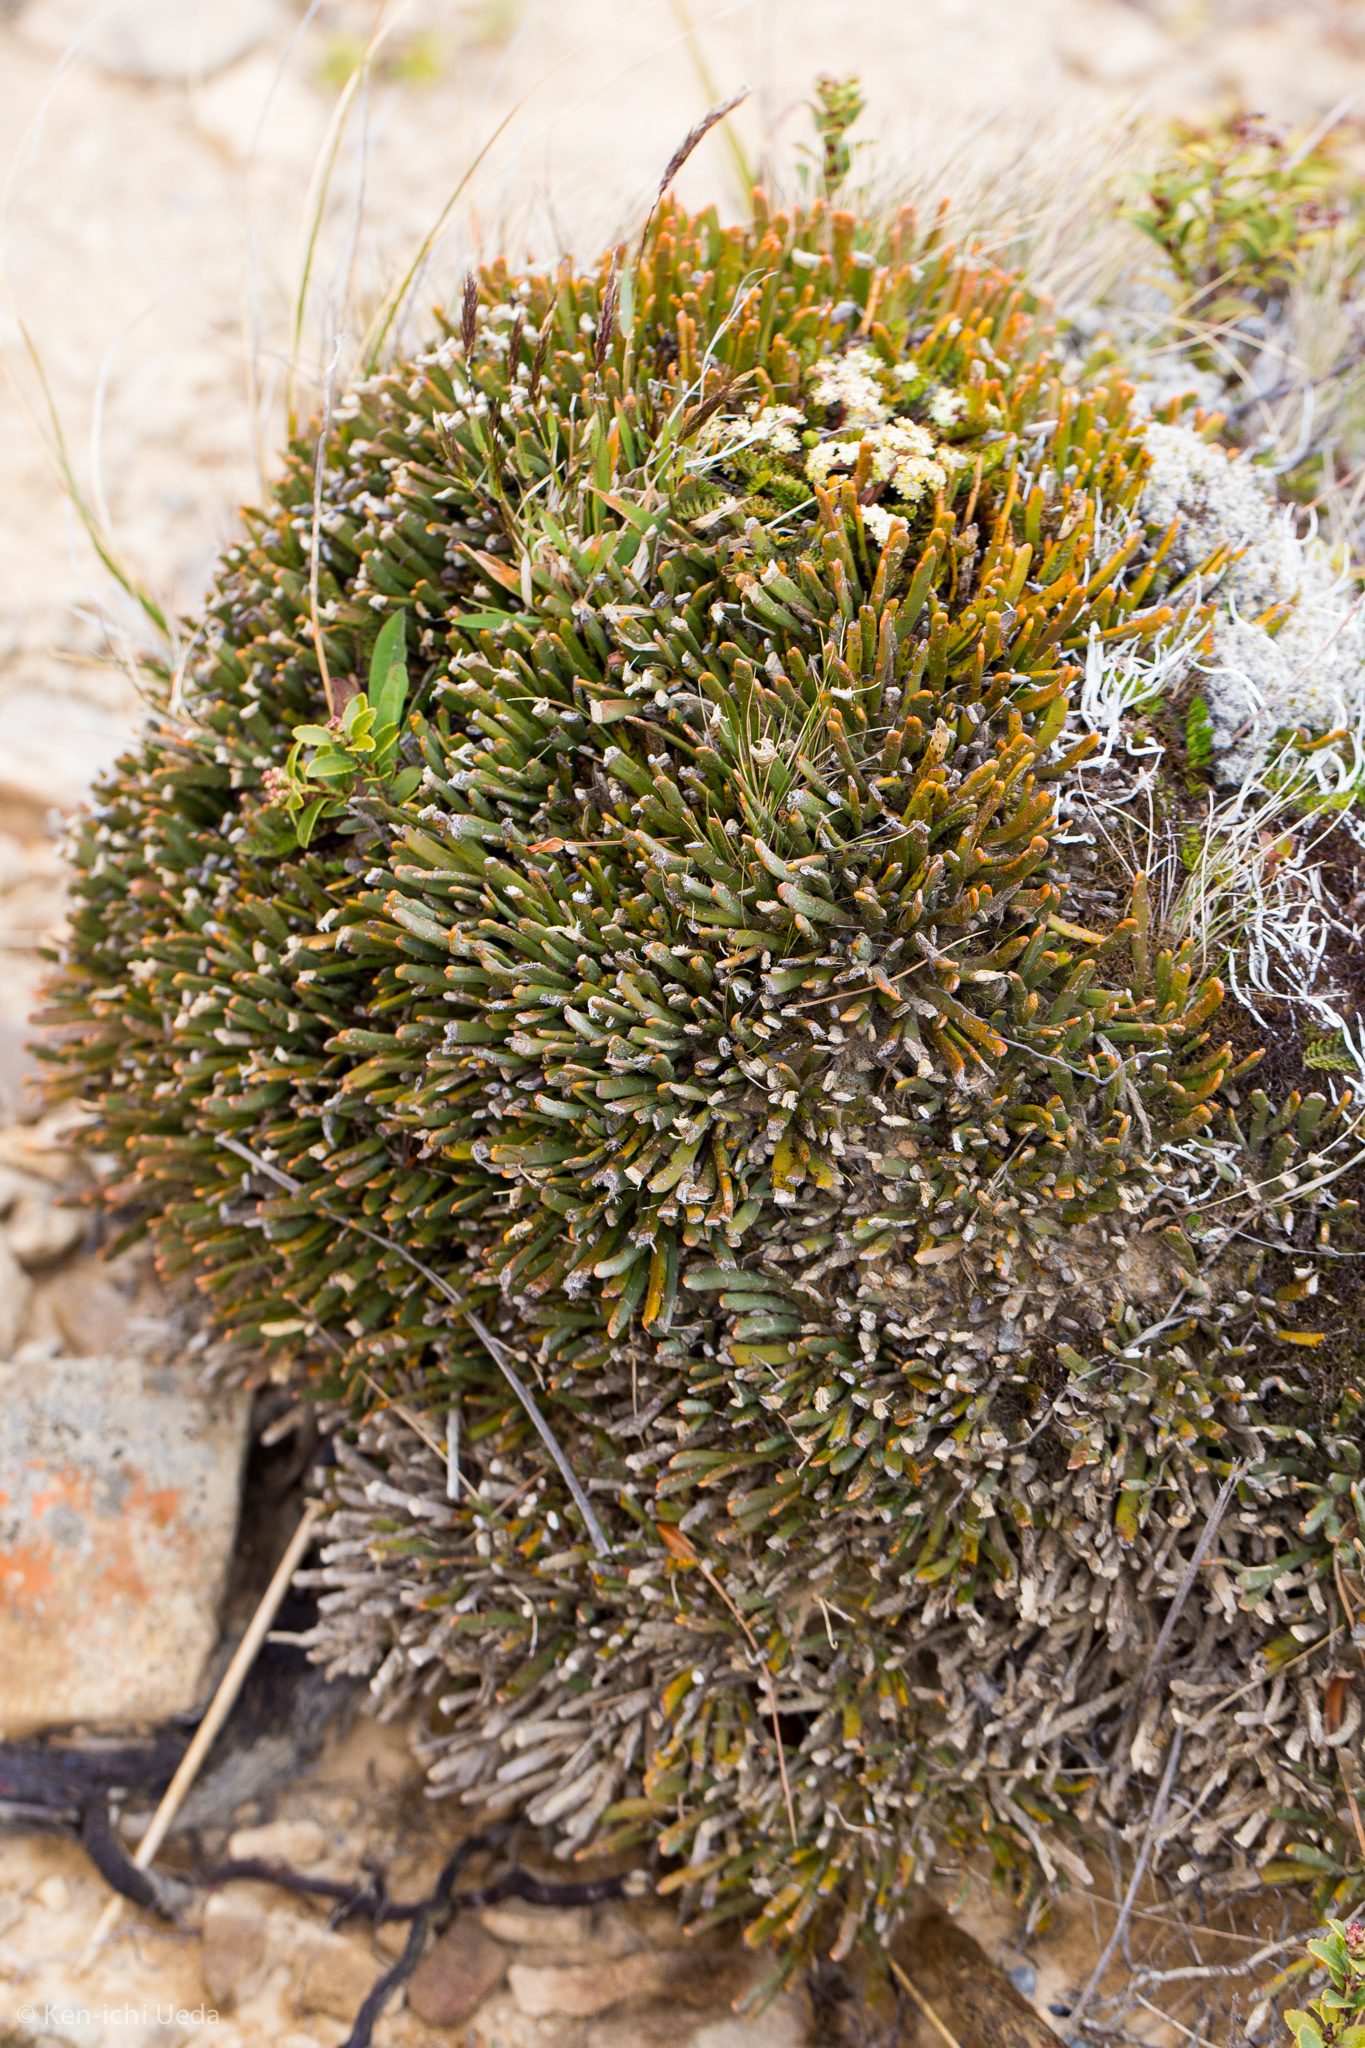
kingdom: Plantae
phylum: Tracheophyta
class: Magnoliopsida
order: Fabales
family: Fabaceae
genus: Carmichaelia
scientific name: Carmichaelia monroi
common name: Stout dwarf broom
